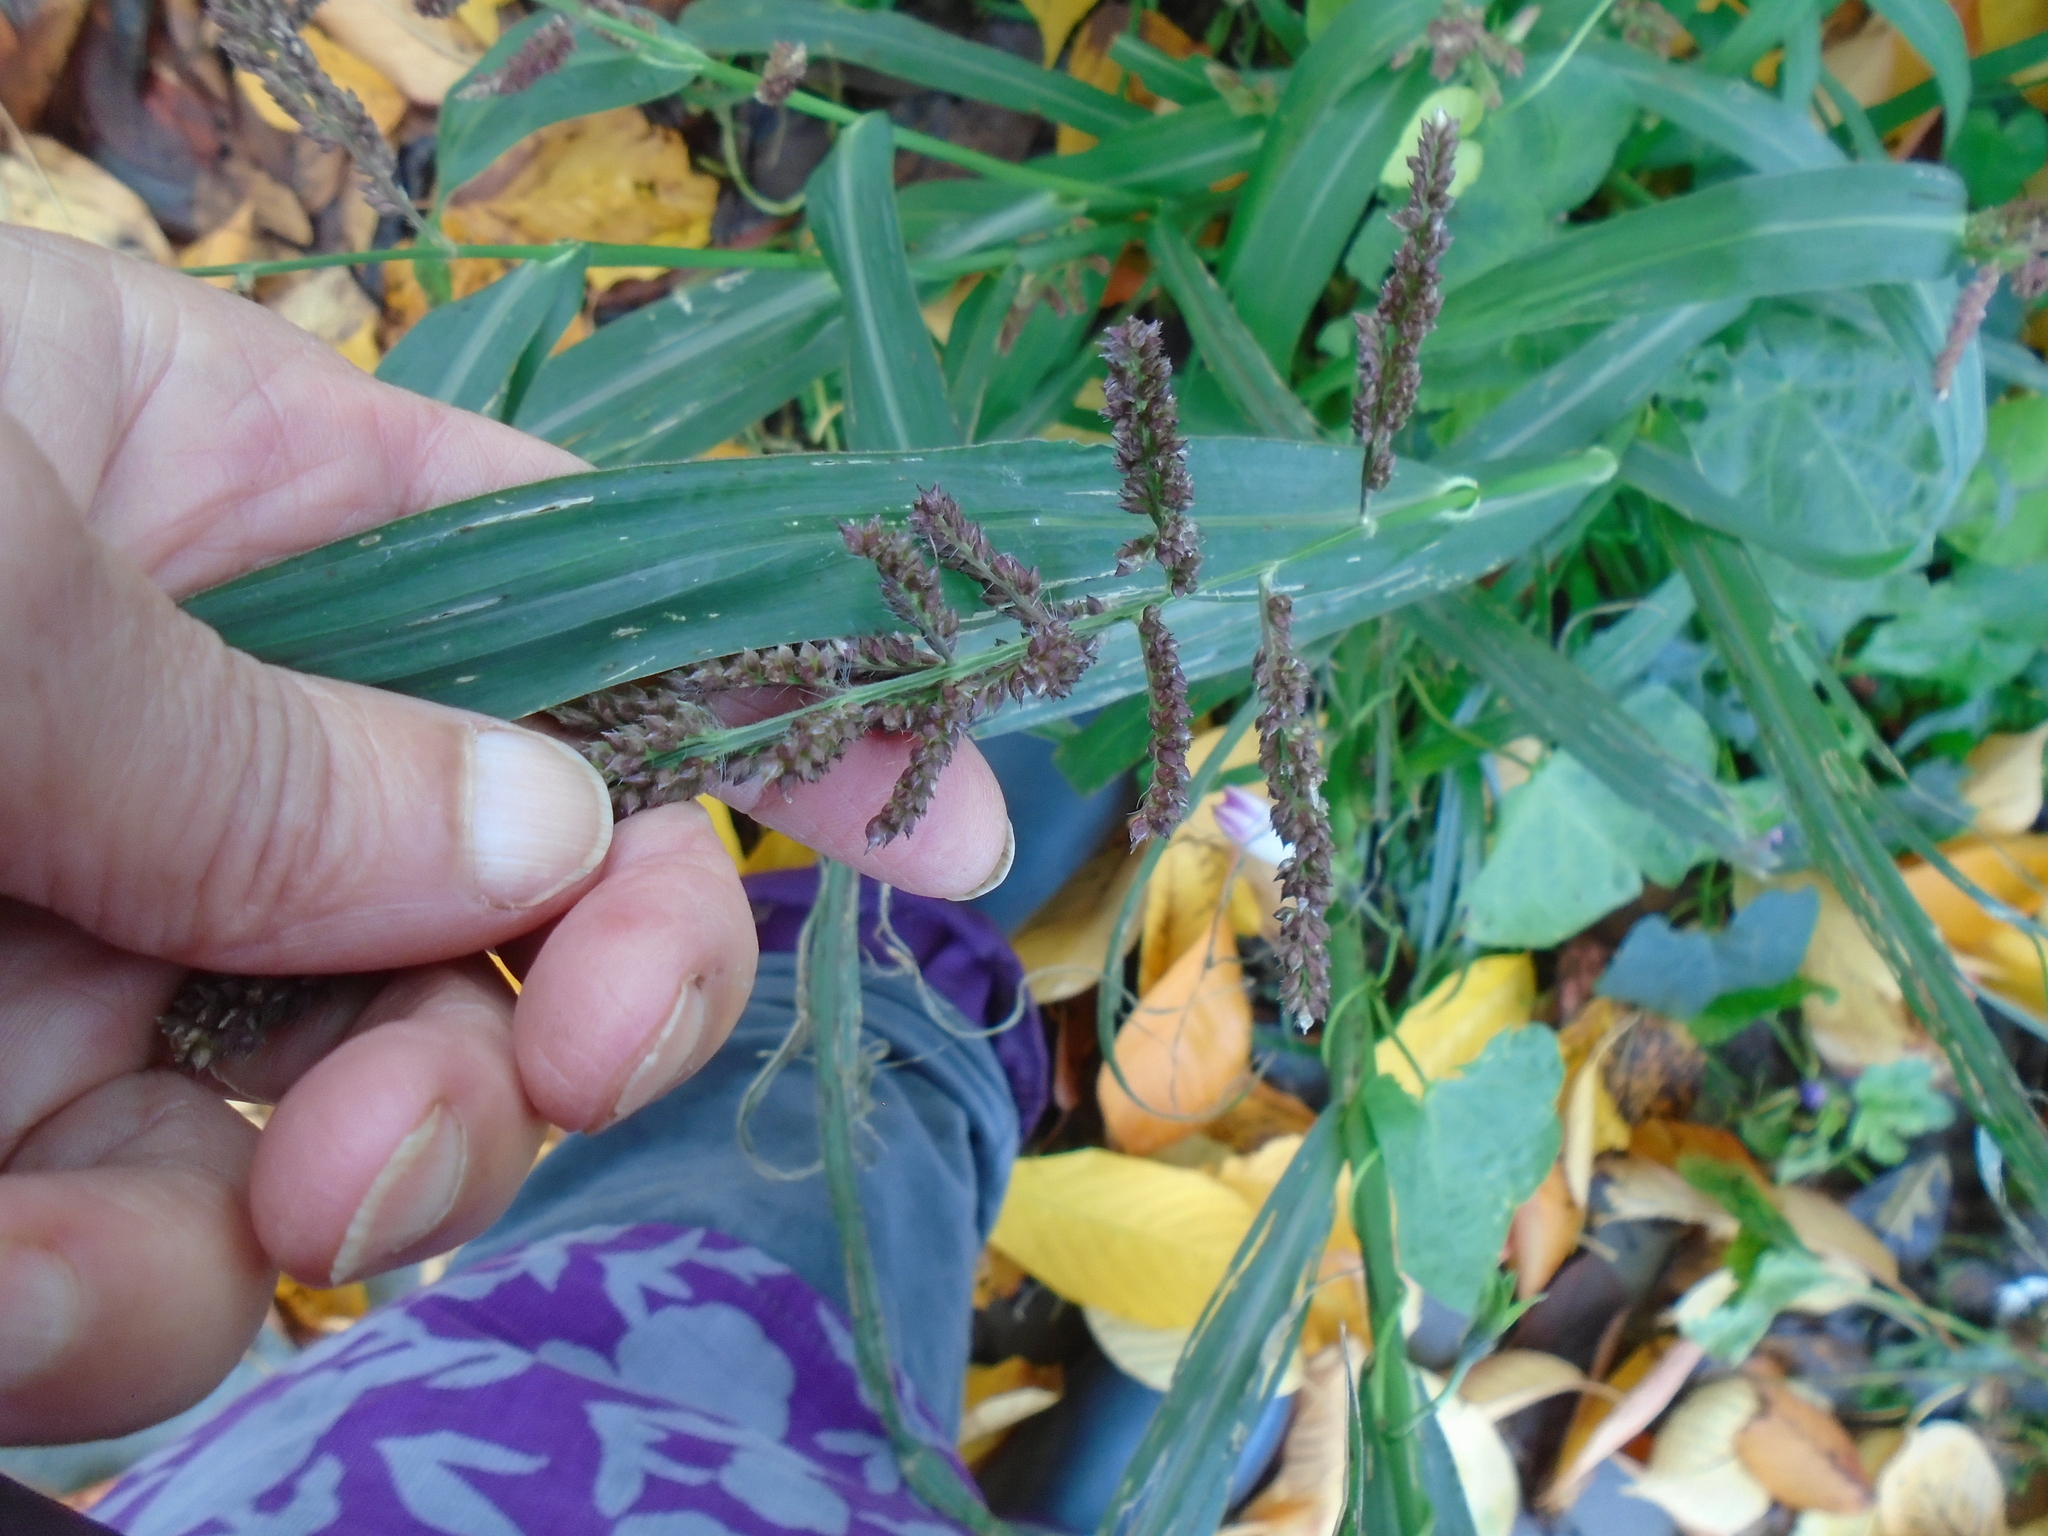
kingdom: Plantae
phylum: Tracheophyta
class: Liliopsida
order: Poales
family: Poaceae
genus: Echinochloa
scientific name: Echinochloa crus-galli
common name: Cockspur
